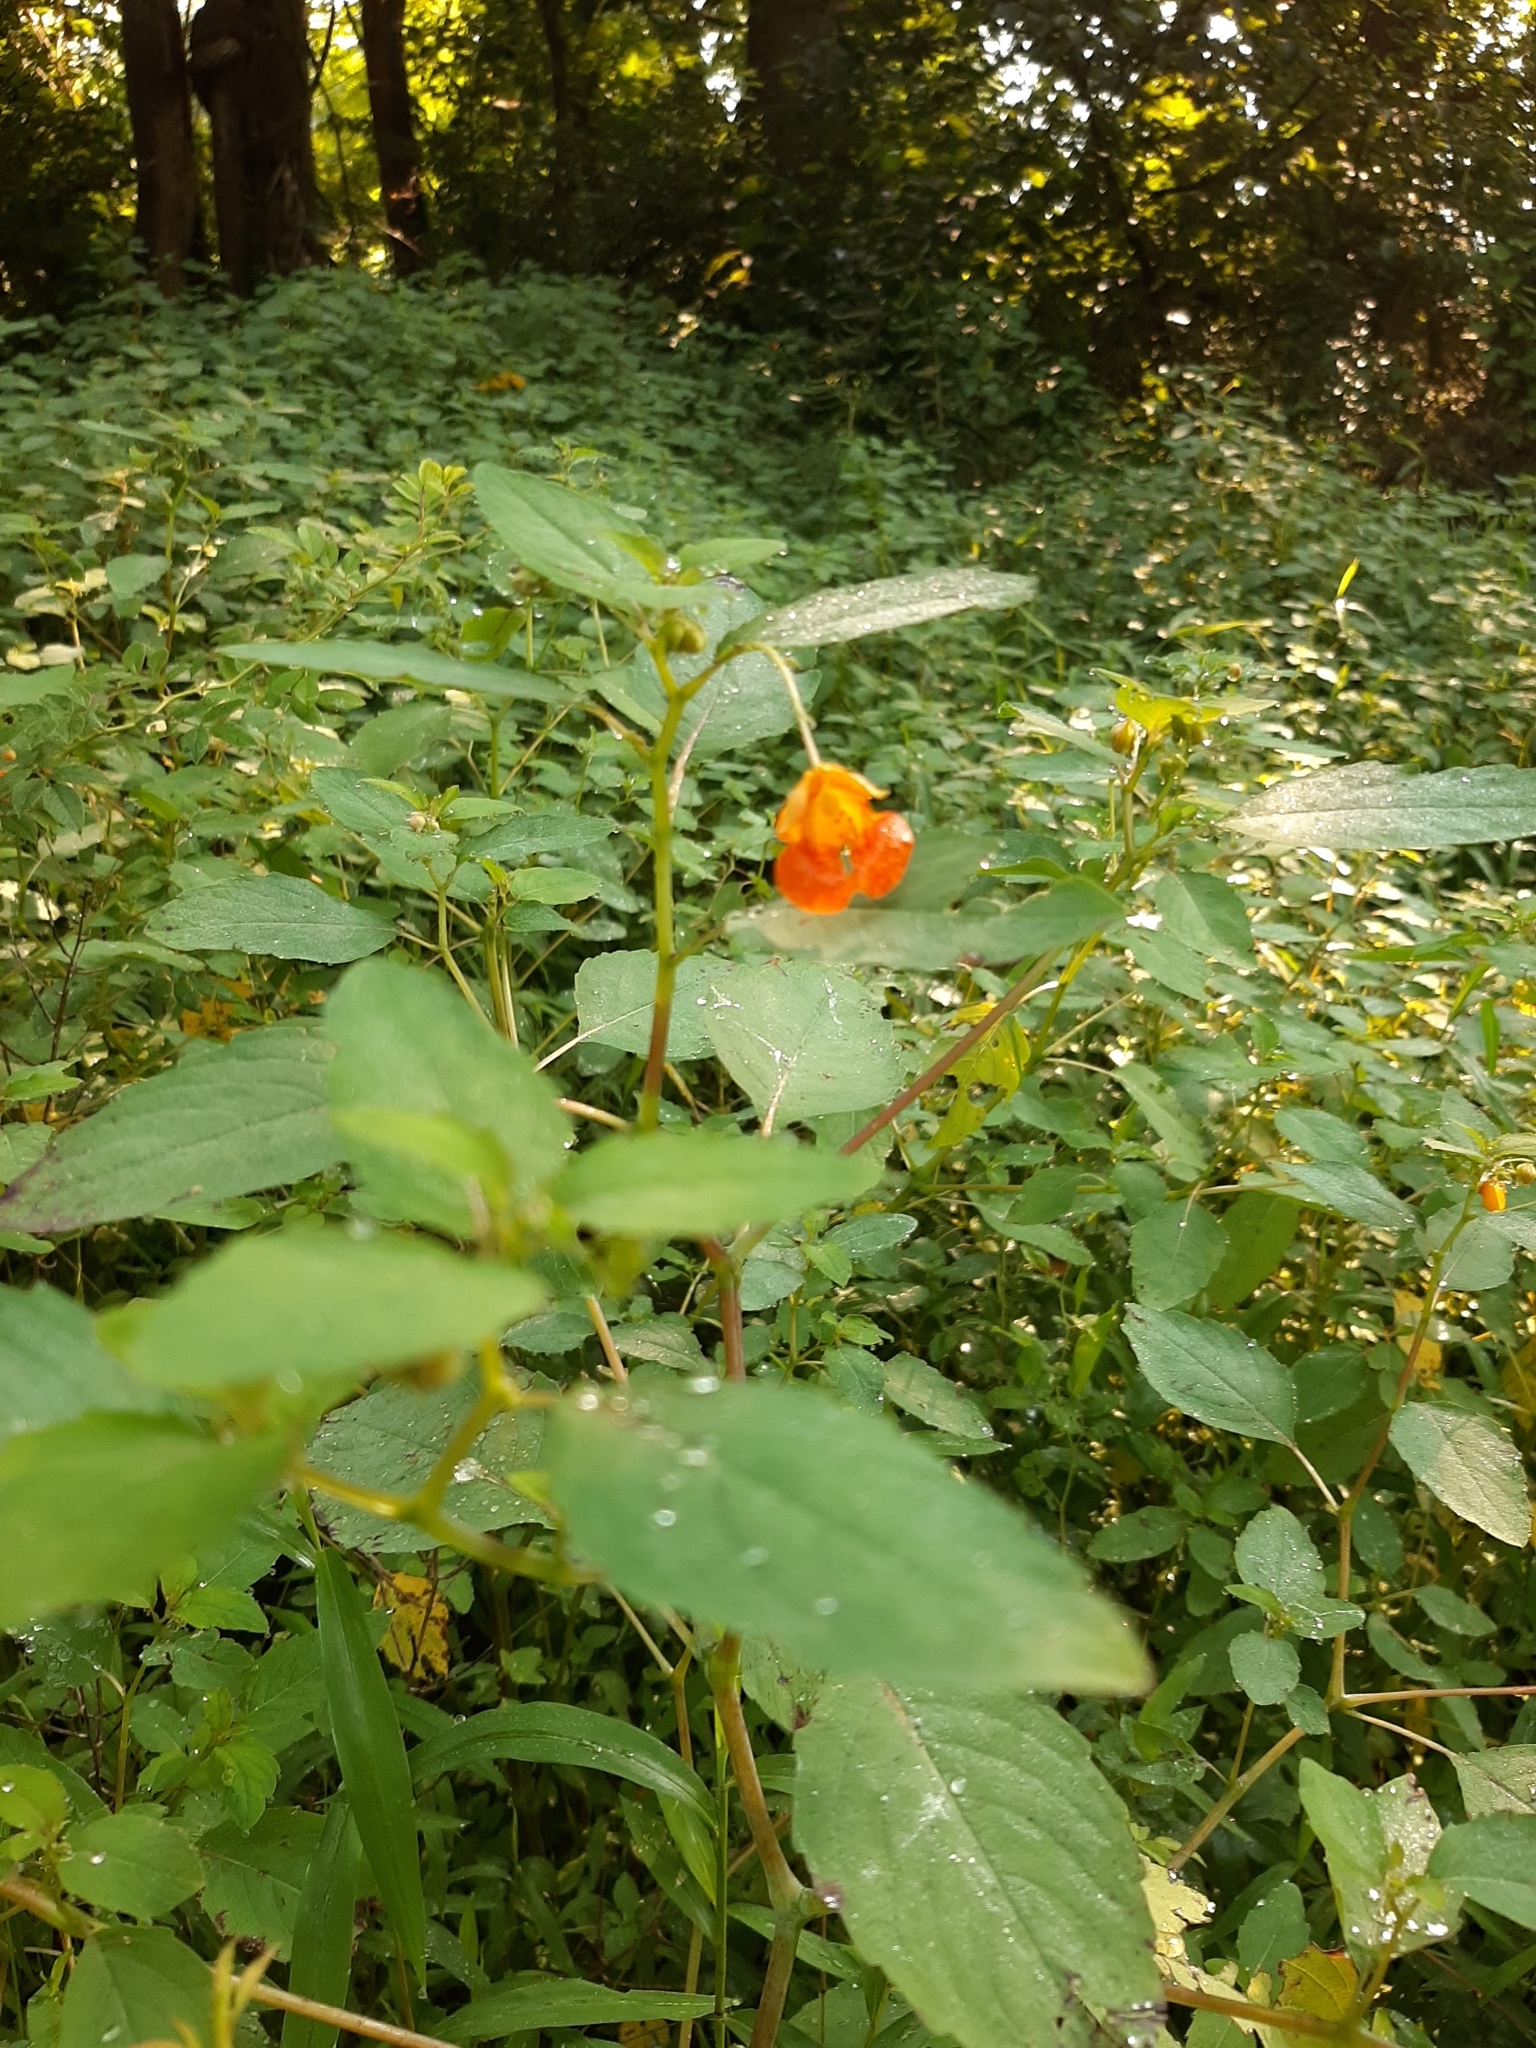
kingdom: Plantae
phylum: Tracheophyta
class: Magnoliopsida
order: Ericales
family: Balsaminaceae
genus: Impatiens
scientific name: Impatiens capensis
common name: Orange balsam
